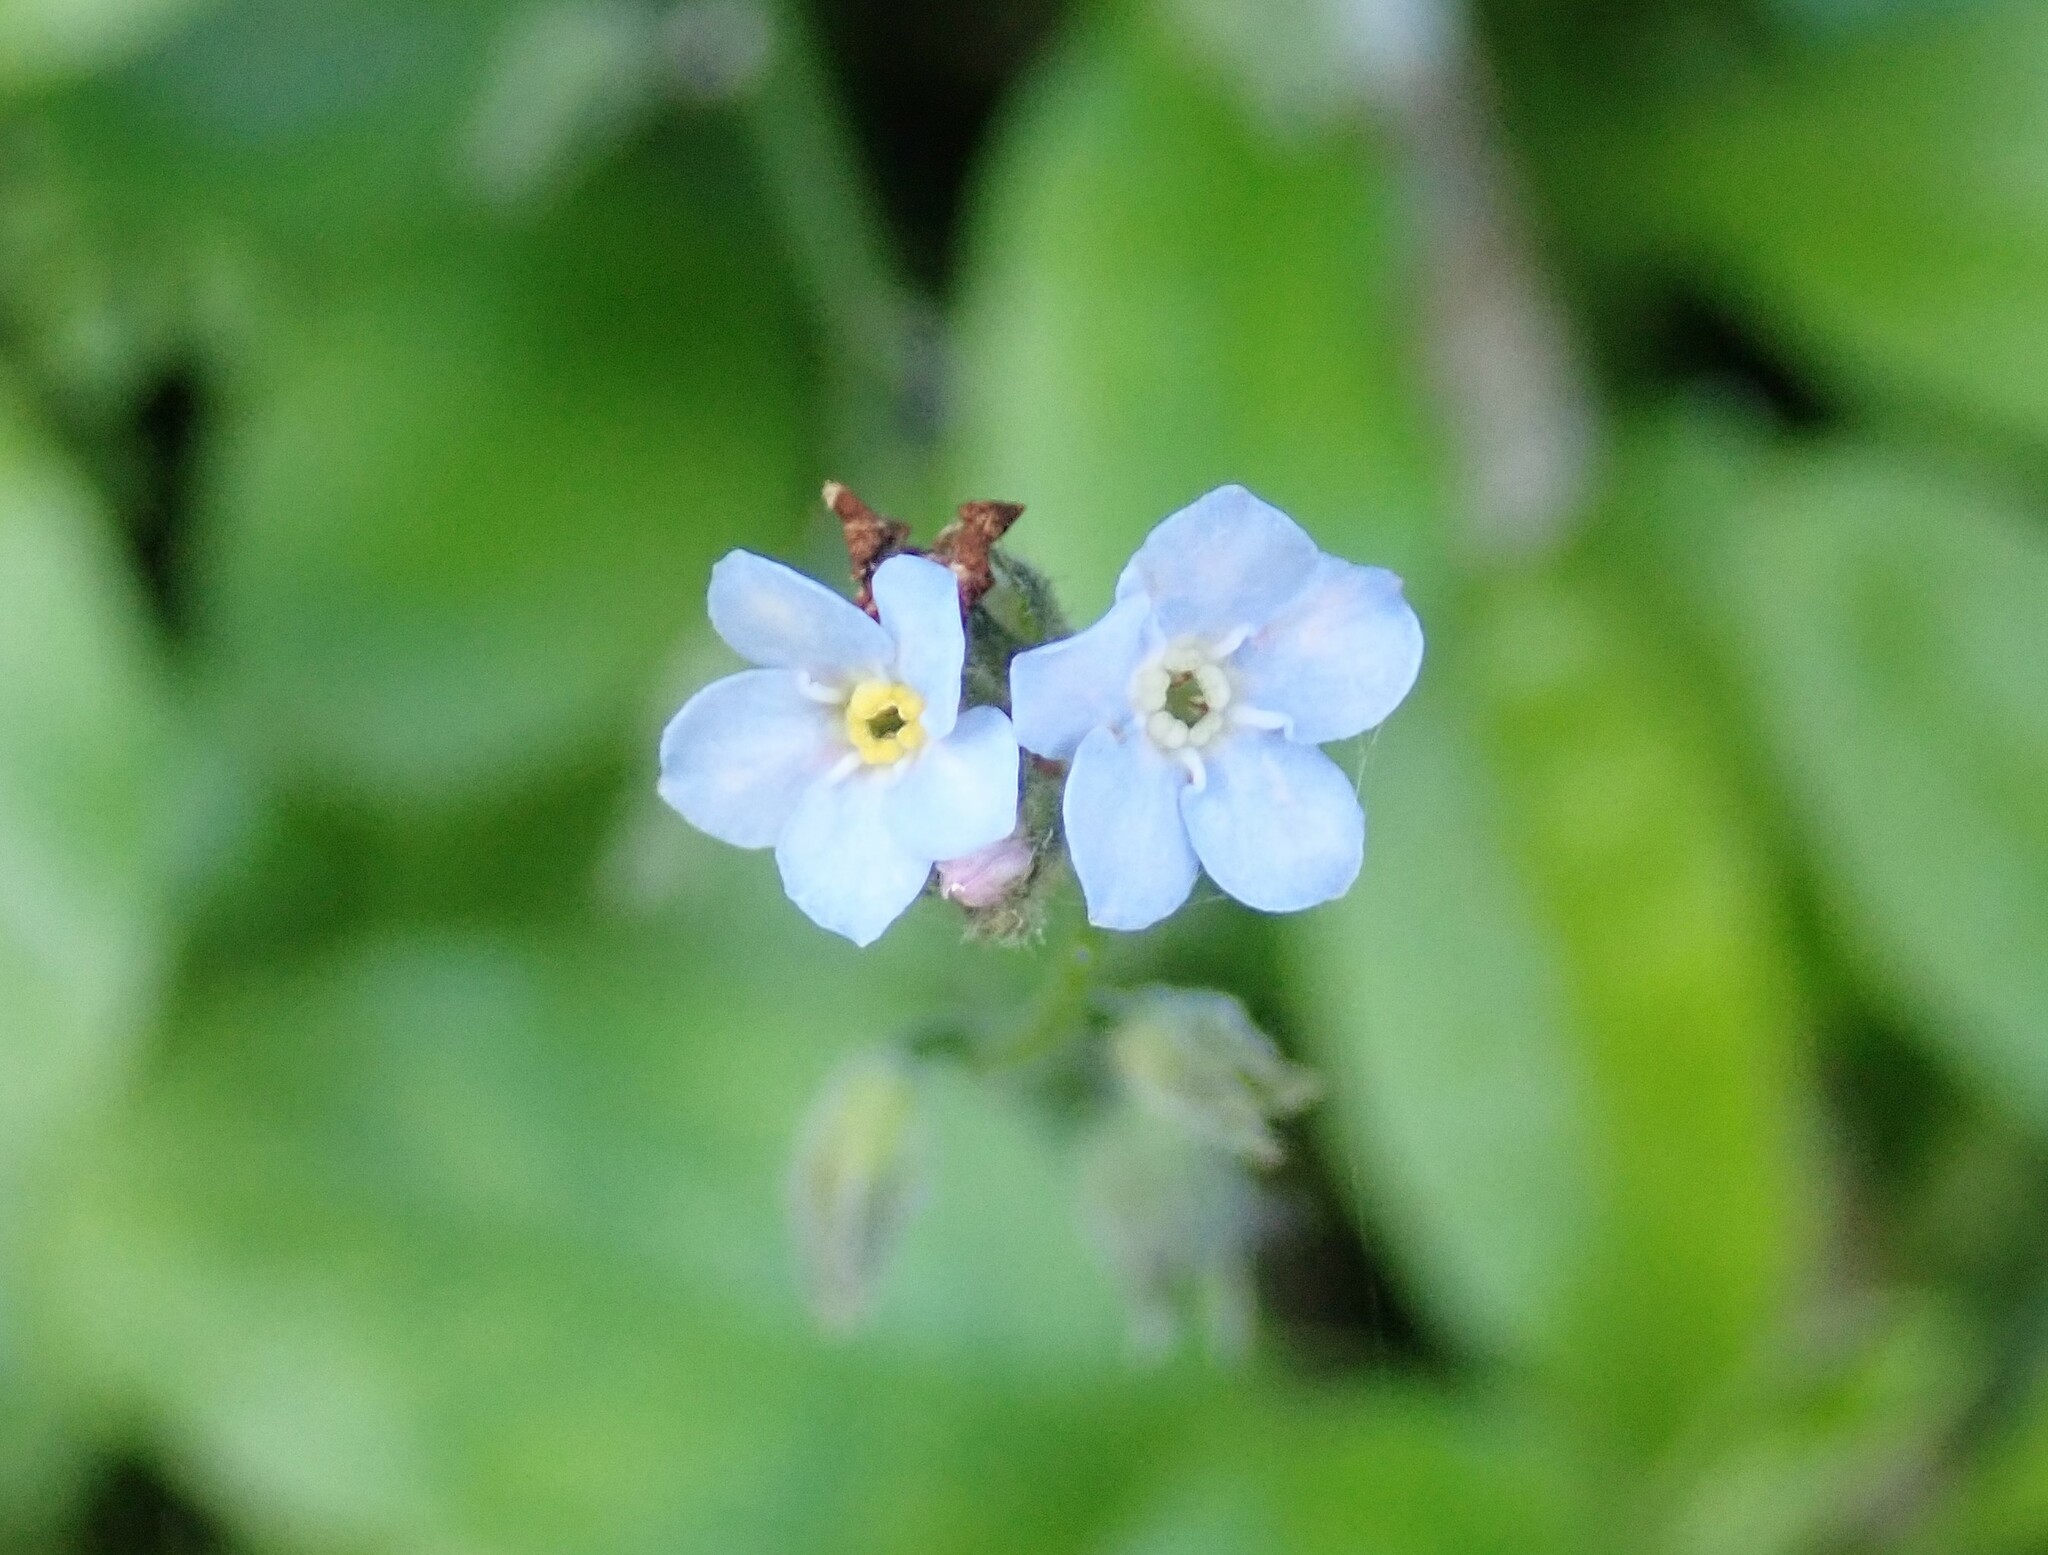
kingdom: Plantae
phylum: Tracheophyta
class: Magnoliopsida
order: Boraginales
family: Boraginaceae
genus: Myosotis
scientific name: Myosotis latifolia
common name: Broadleaf forget-me-not
